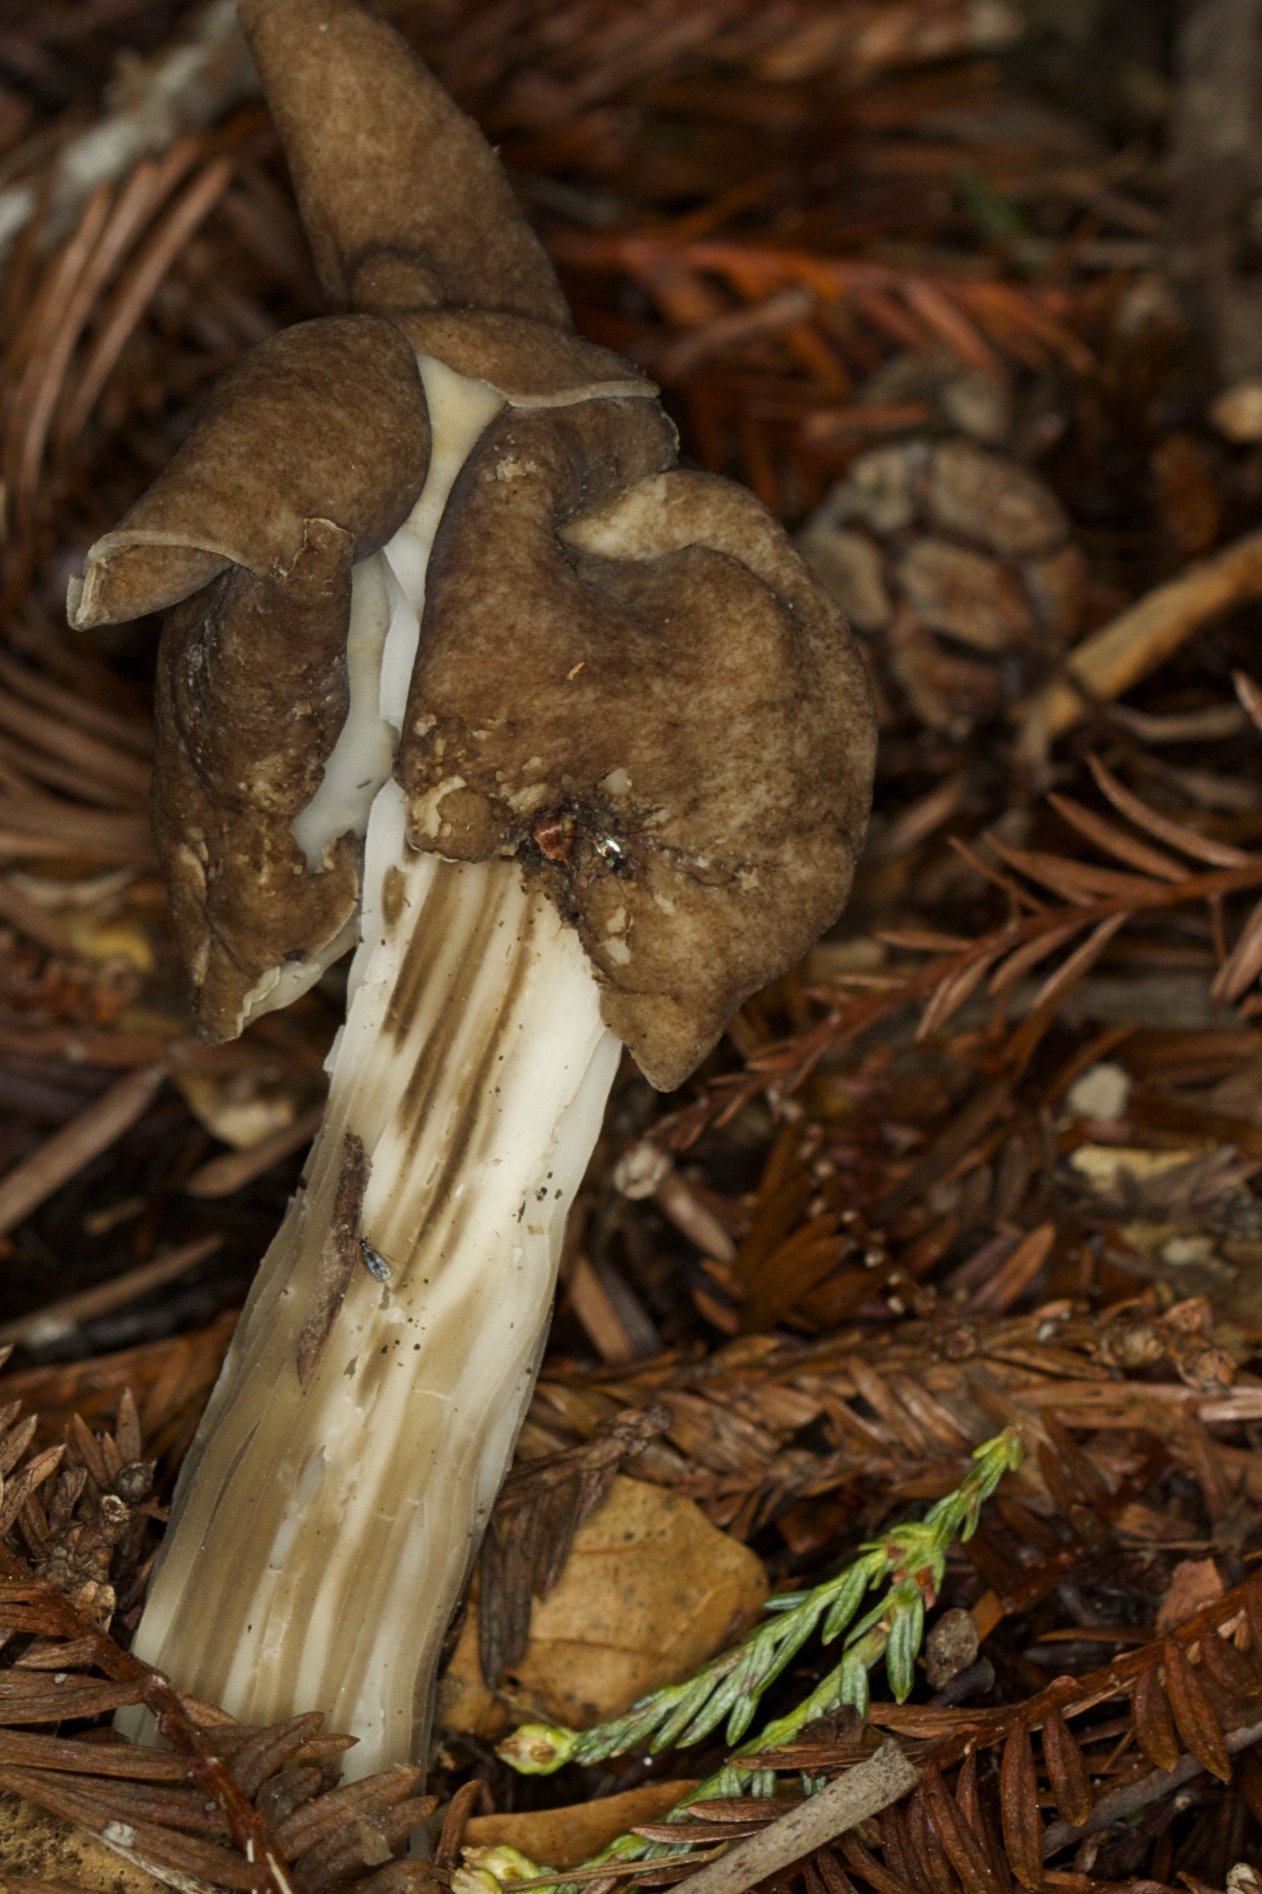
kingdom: Fungi
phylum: Ascomycota
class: Pezizomycetes
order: Pezizales
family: Helvellaceae
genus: Helvella
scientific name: Helvella maculata
